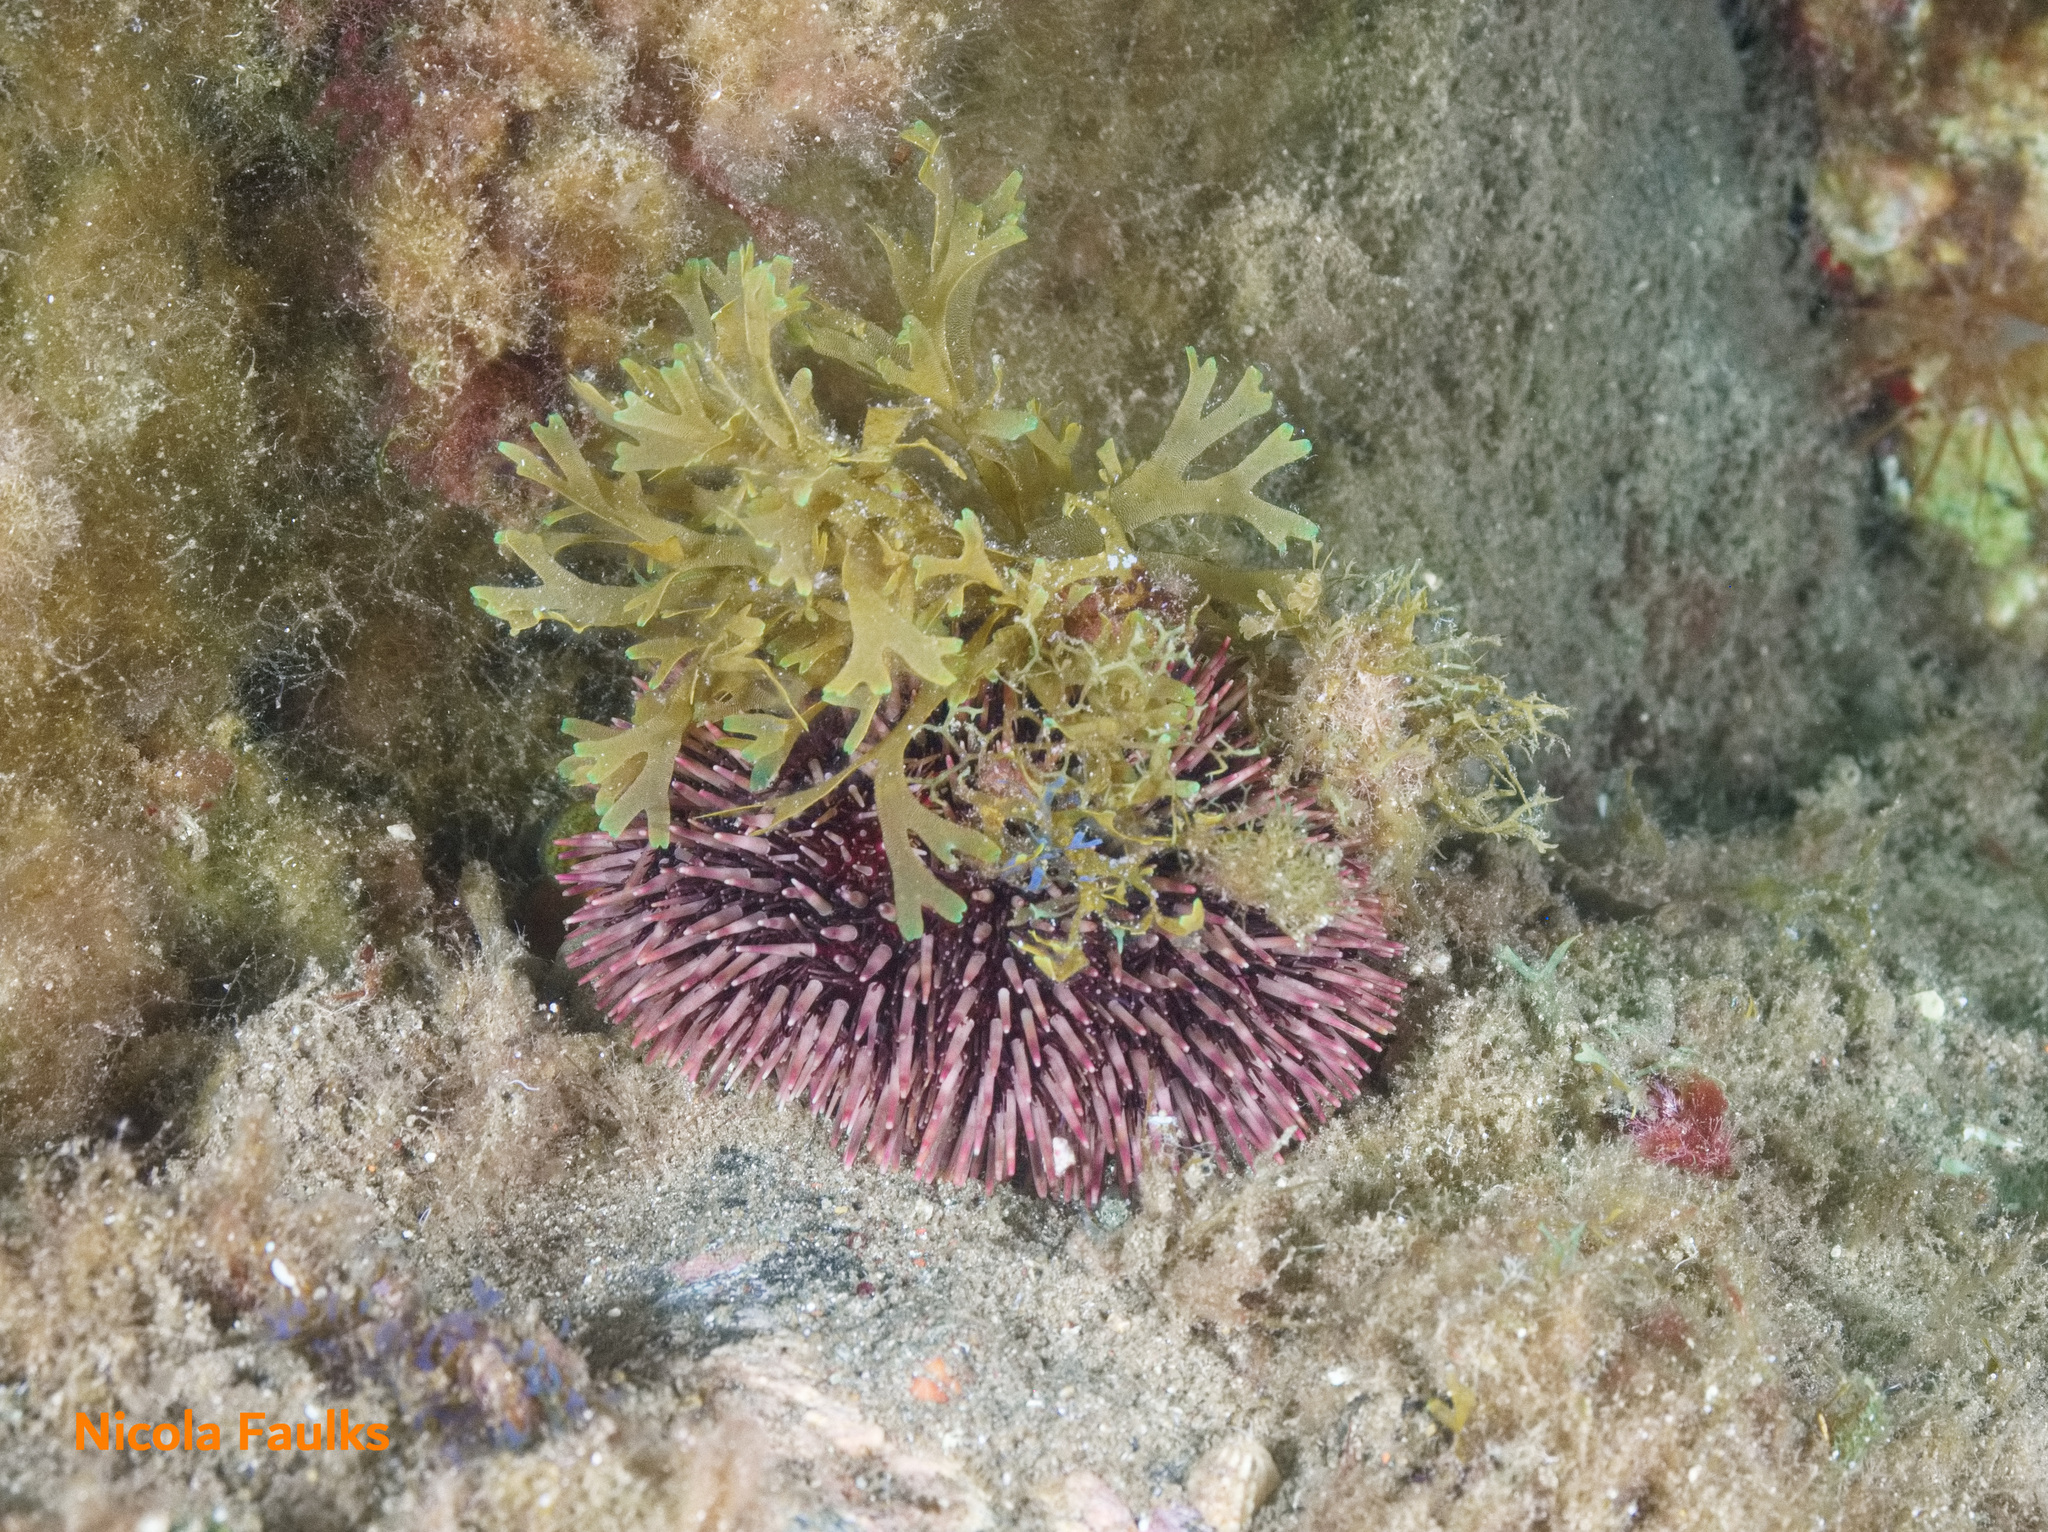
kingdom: Animalia
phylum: Echinodermata
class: Echinoidea
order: Camarodonta
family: Toxopneustidae
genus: Sphaerechinus
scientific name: Sphaerechinus granularis
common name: Violet sea urchin
